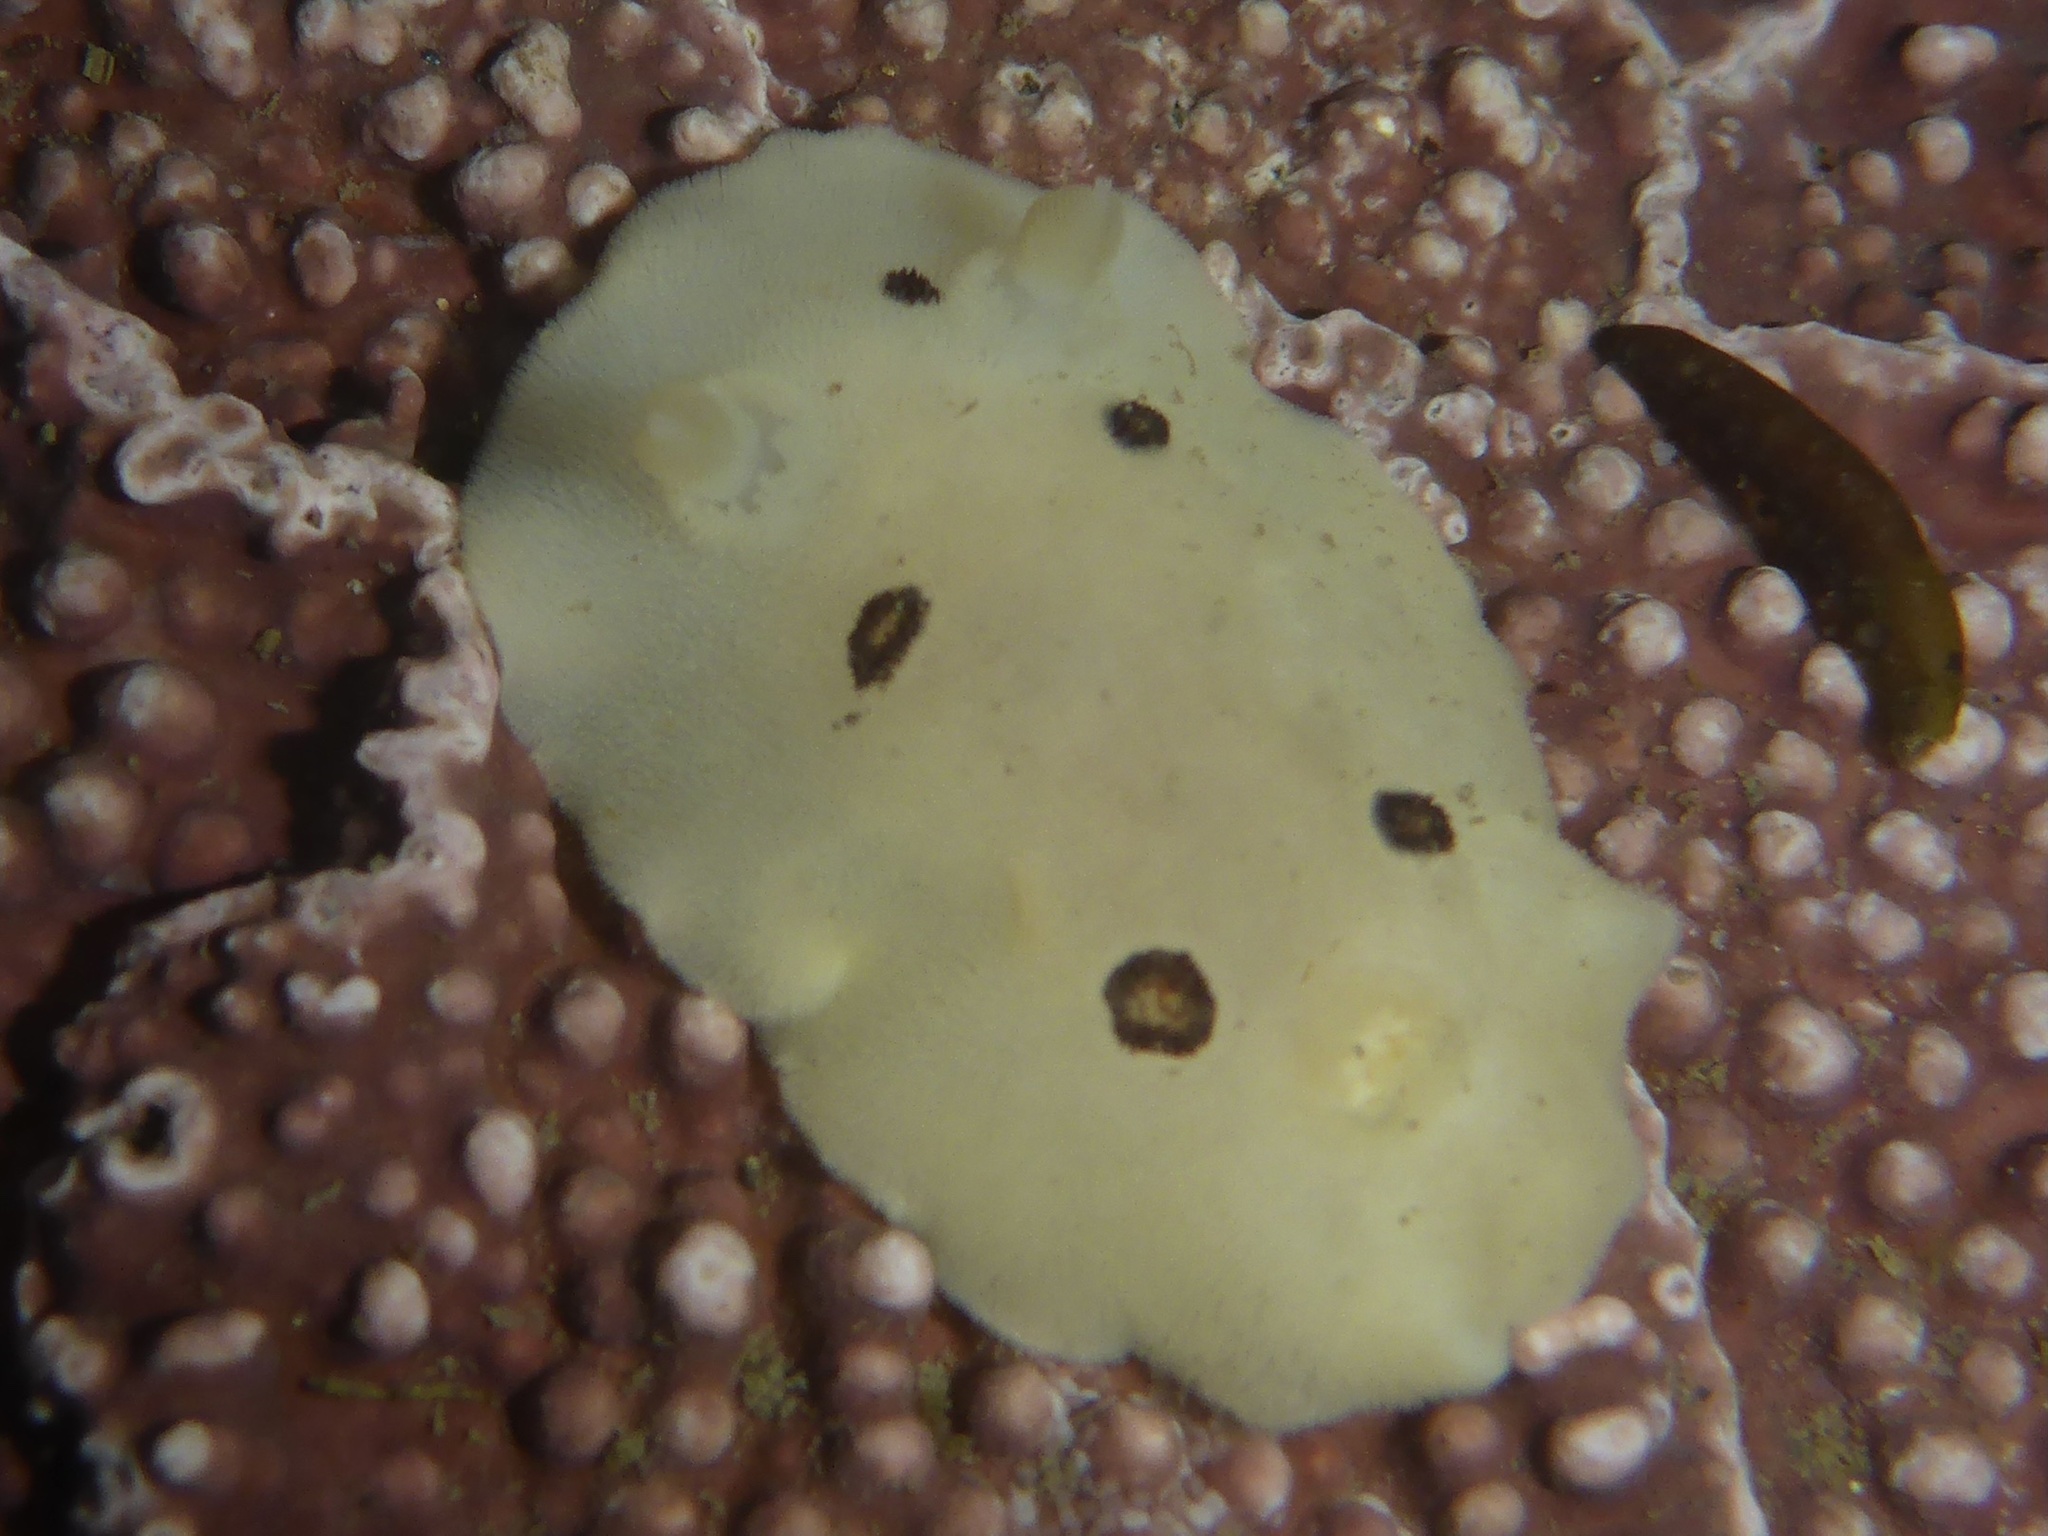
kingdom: Animalia
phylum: Mollusca
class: Gastropoda
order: Nudibranchia
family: Discodorididae
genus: Diaulula
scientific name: Diaulula sandiegensis
